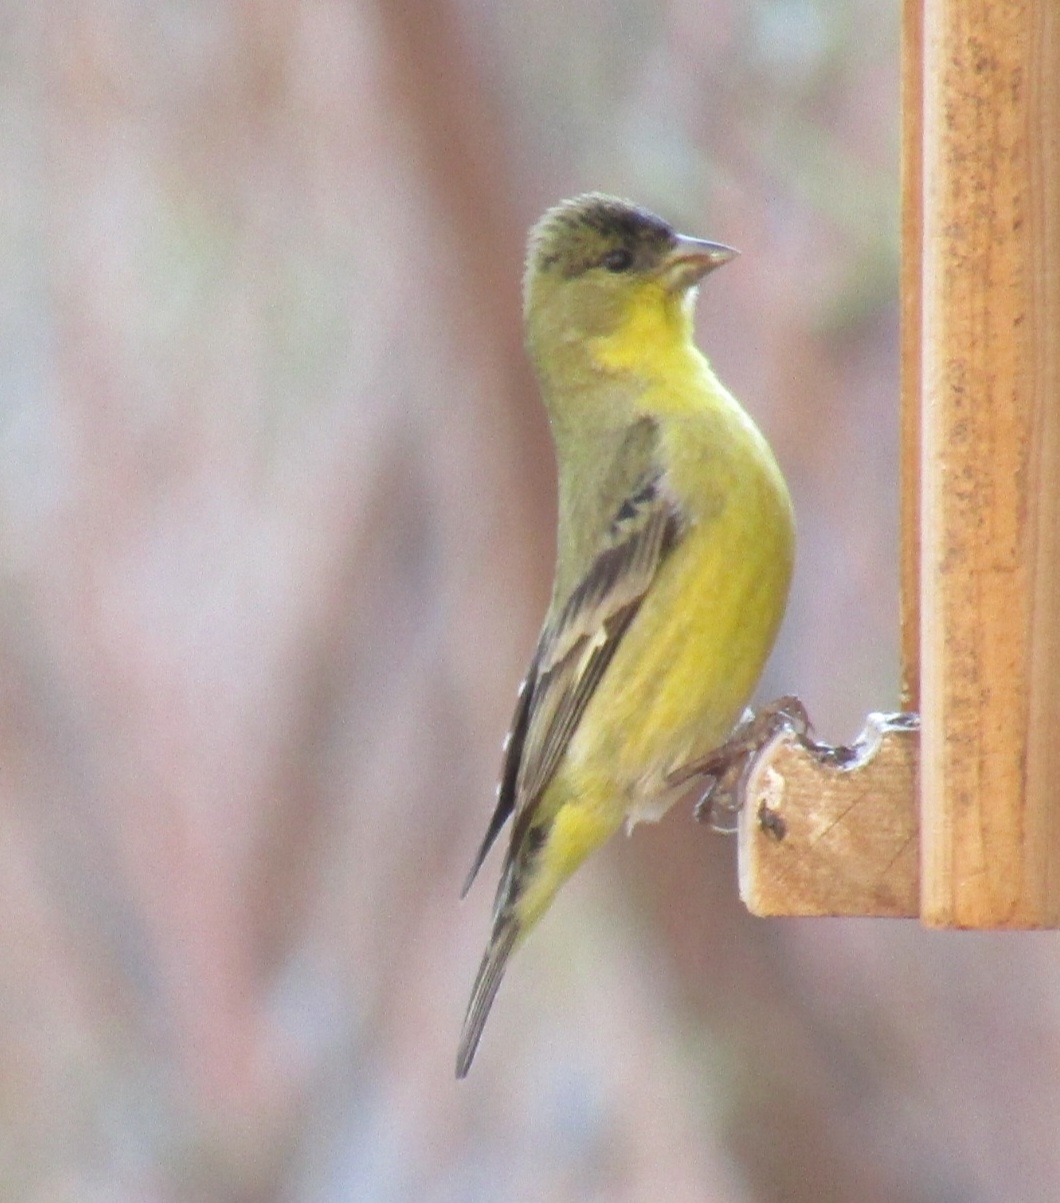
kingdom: Animalia
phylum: Chordata
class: Aves
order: Passeriformes
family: Fringillidae
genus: Spinus
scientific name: Spinus psaltria
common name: Lesser goldfinch
